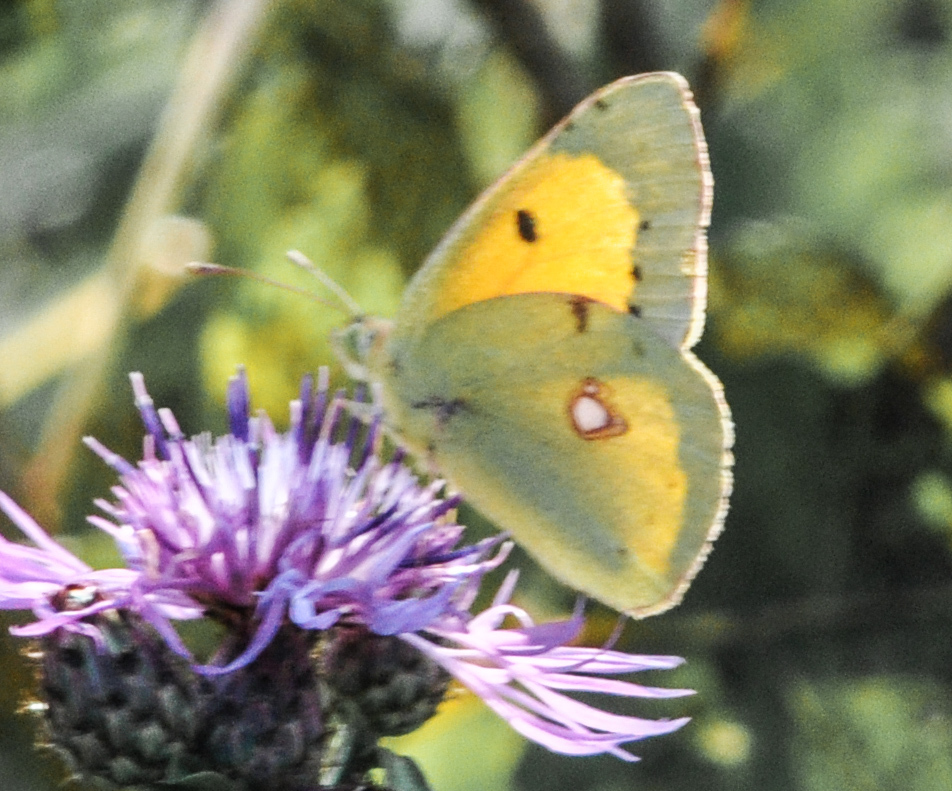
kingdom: Animalia
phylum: Arthropoda
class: Insecta
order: Lepidoptera
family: Pieridae
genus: Colias
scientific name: Colias croceus
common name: Clouded yellow
